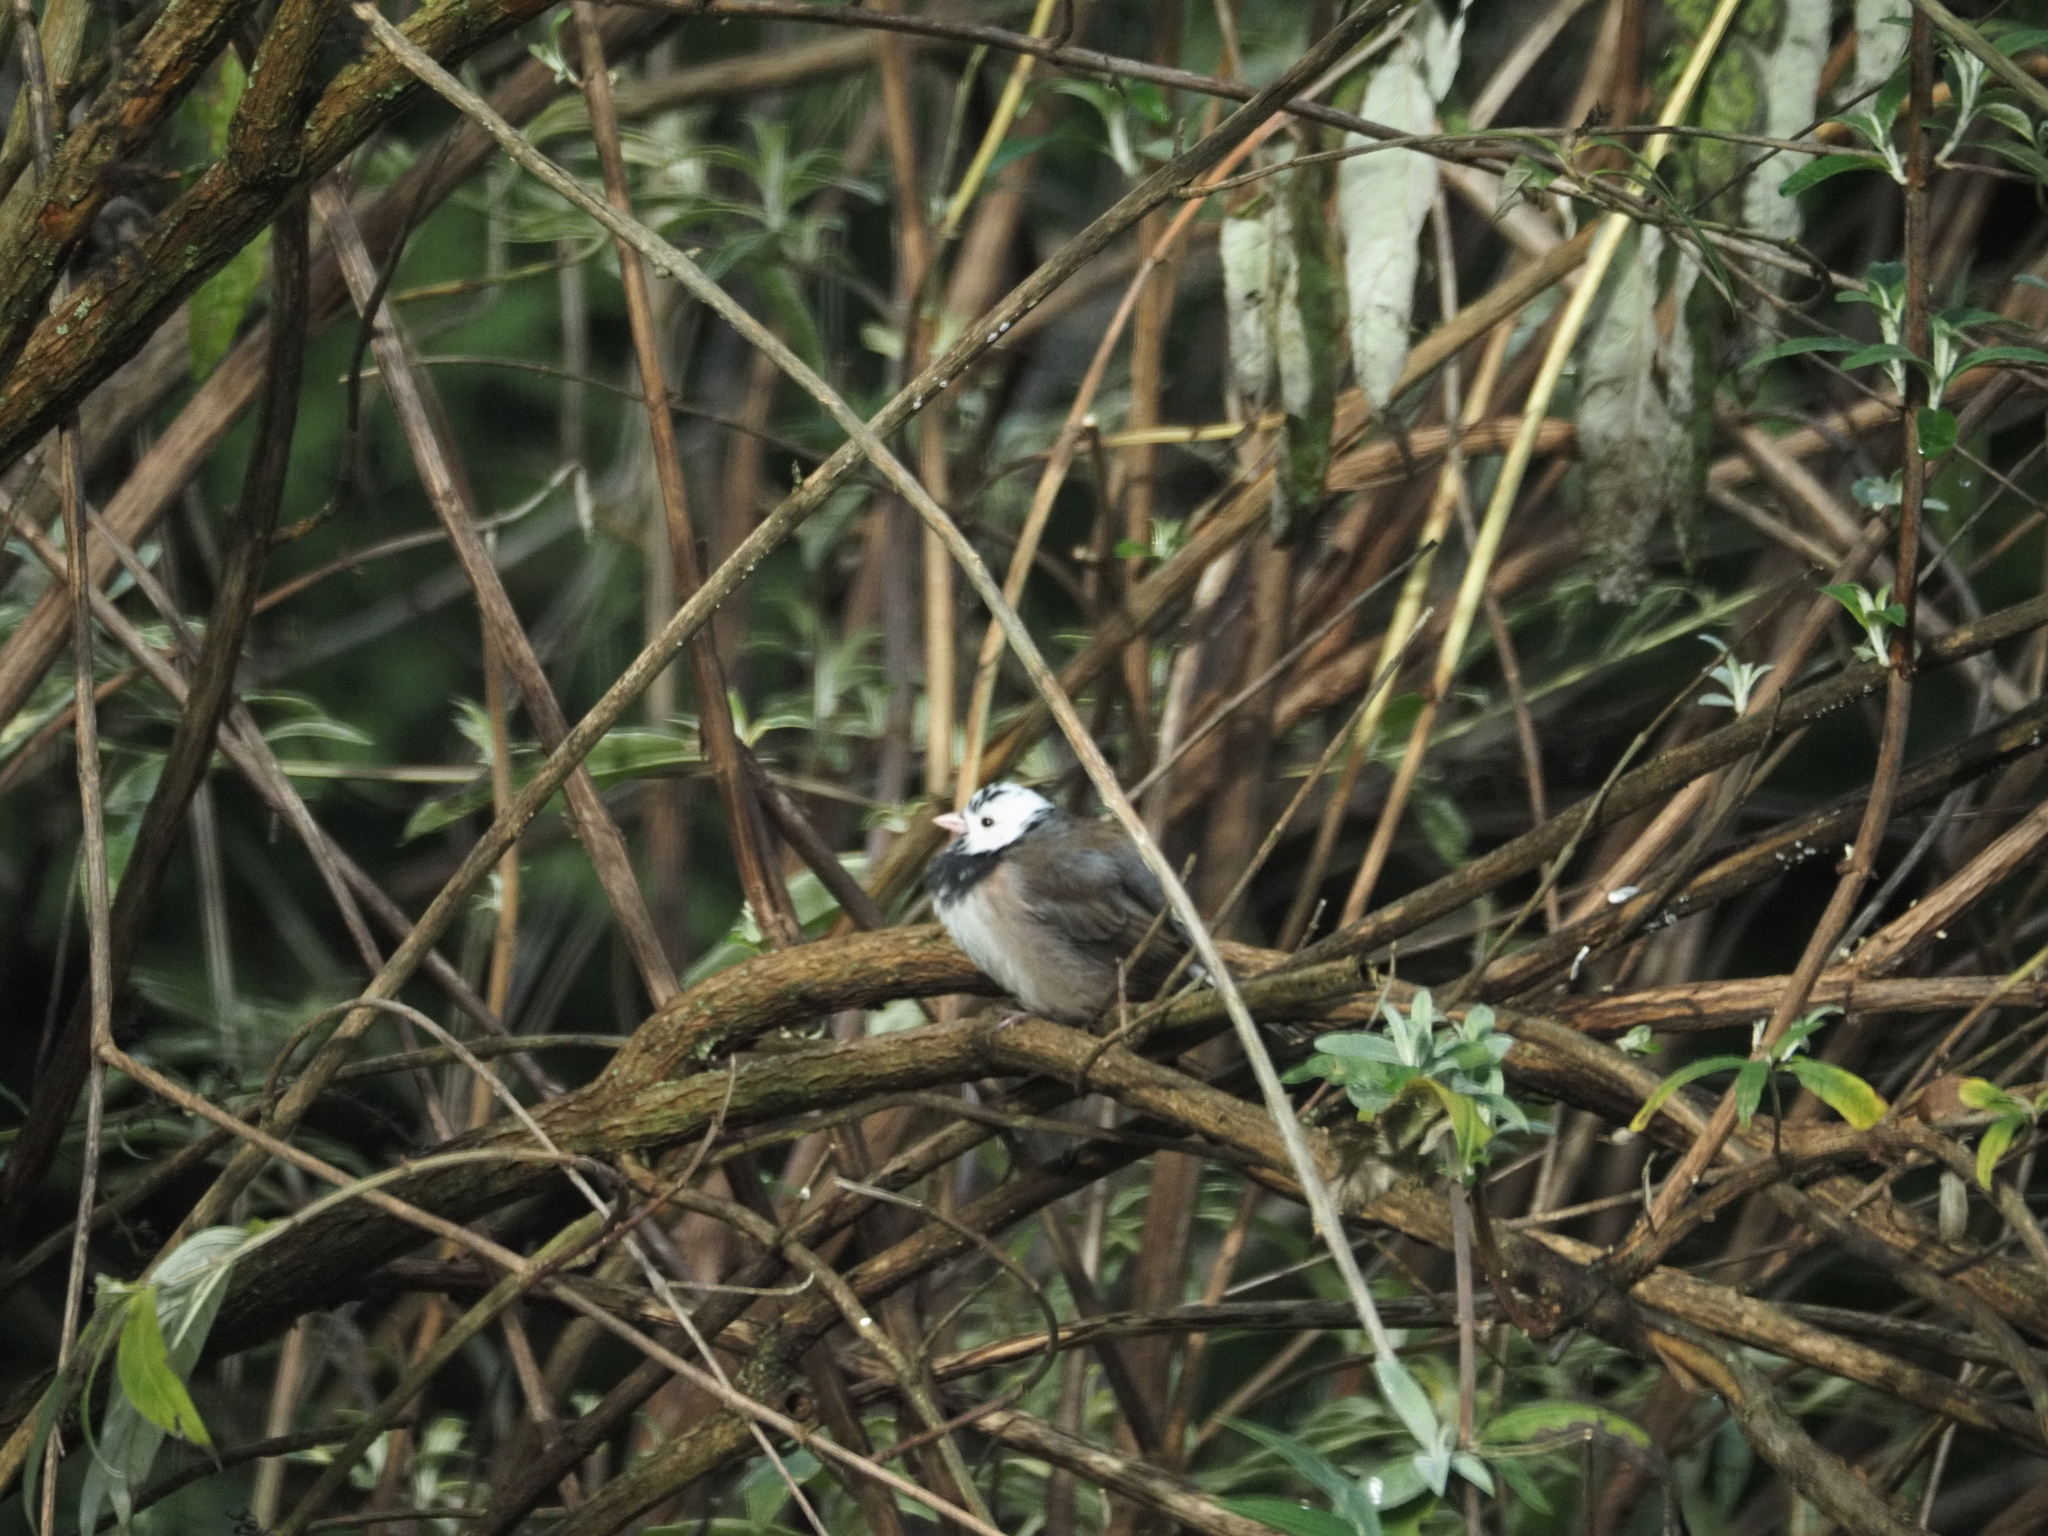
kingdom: Animalia
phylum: Chordata
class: Aves
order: Passeriformes
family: Passerellidae
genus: Junco
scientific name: Junco hyemalis
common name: Dark-eyed junco
